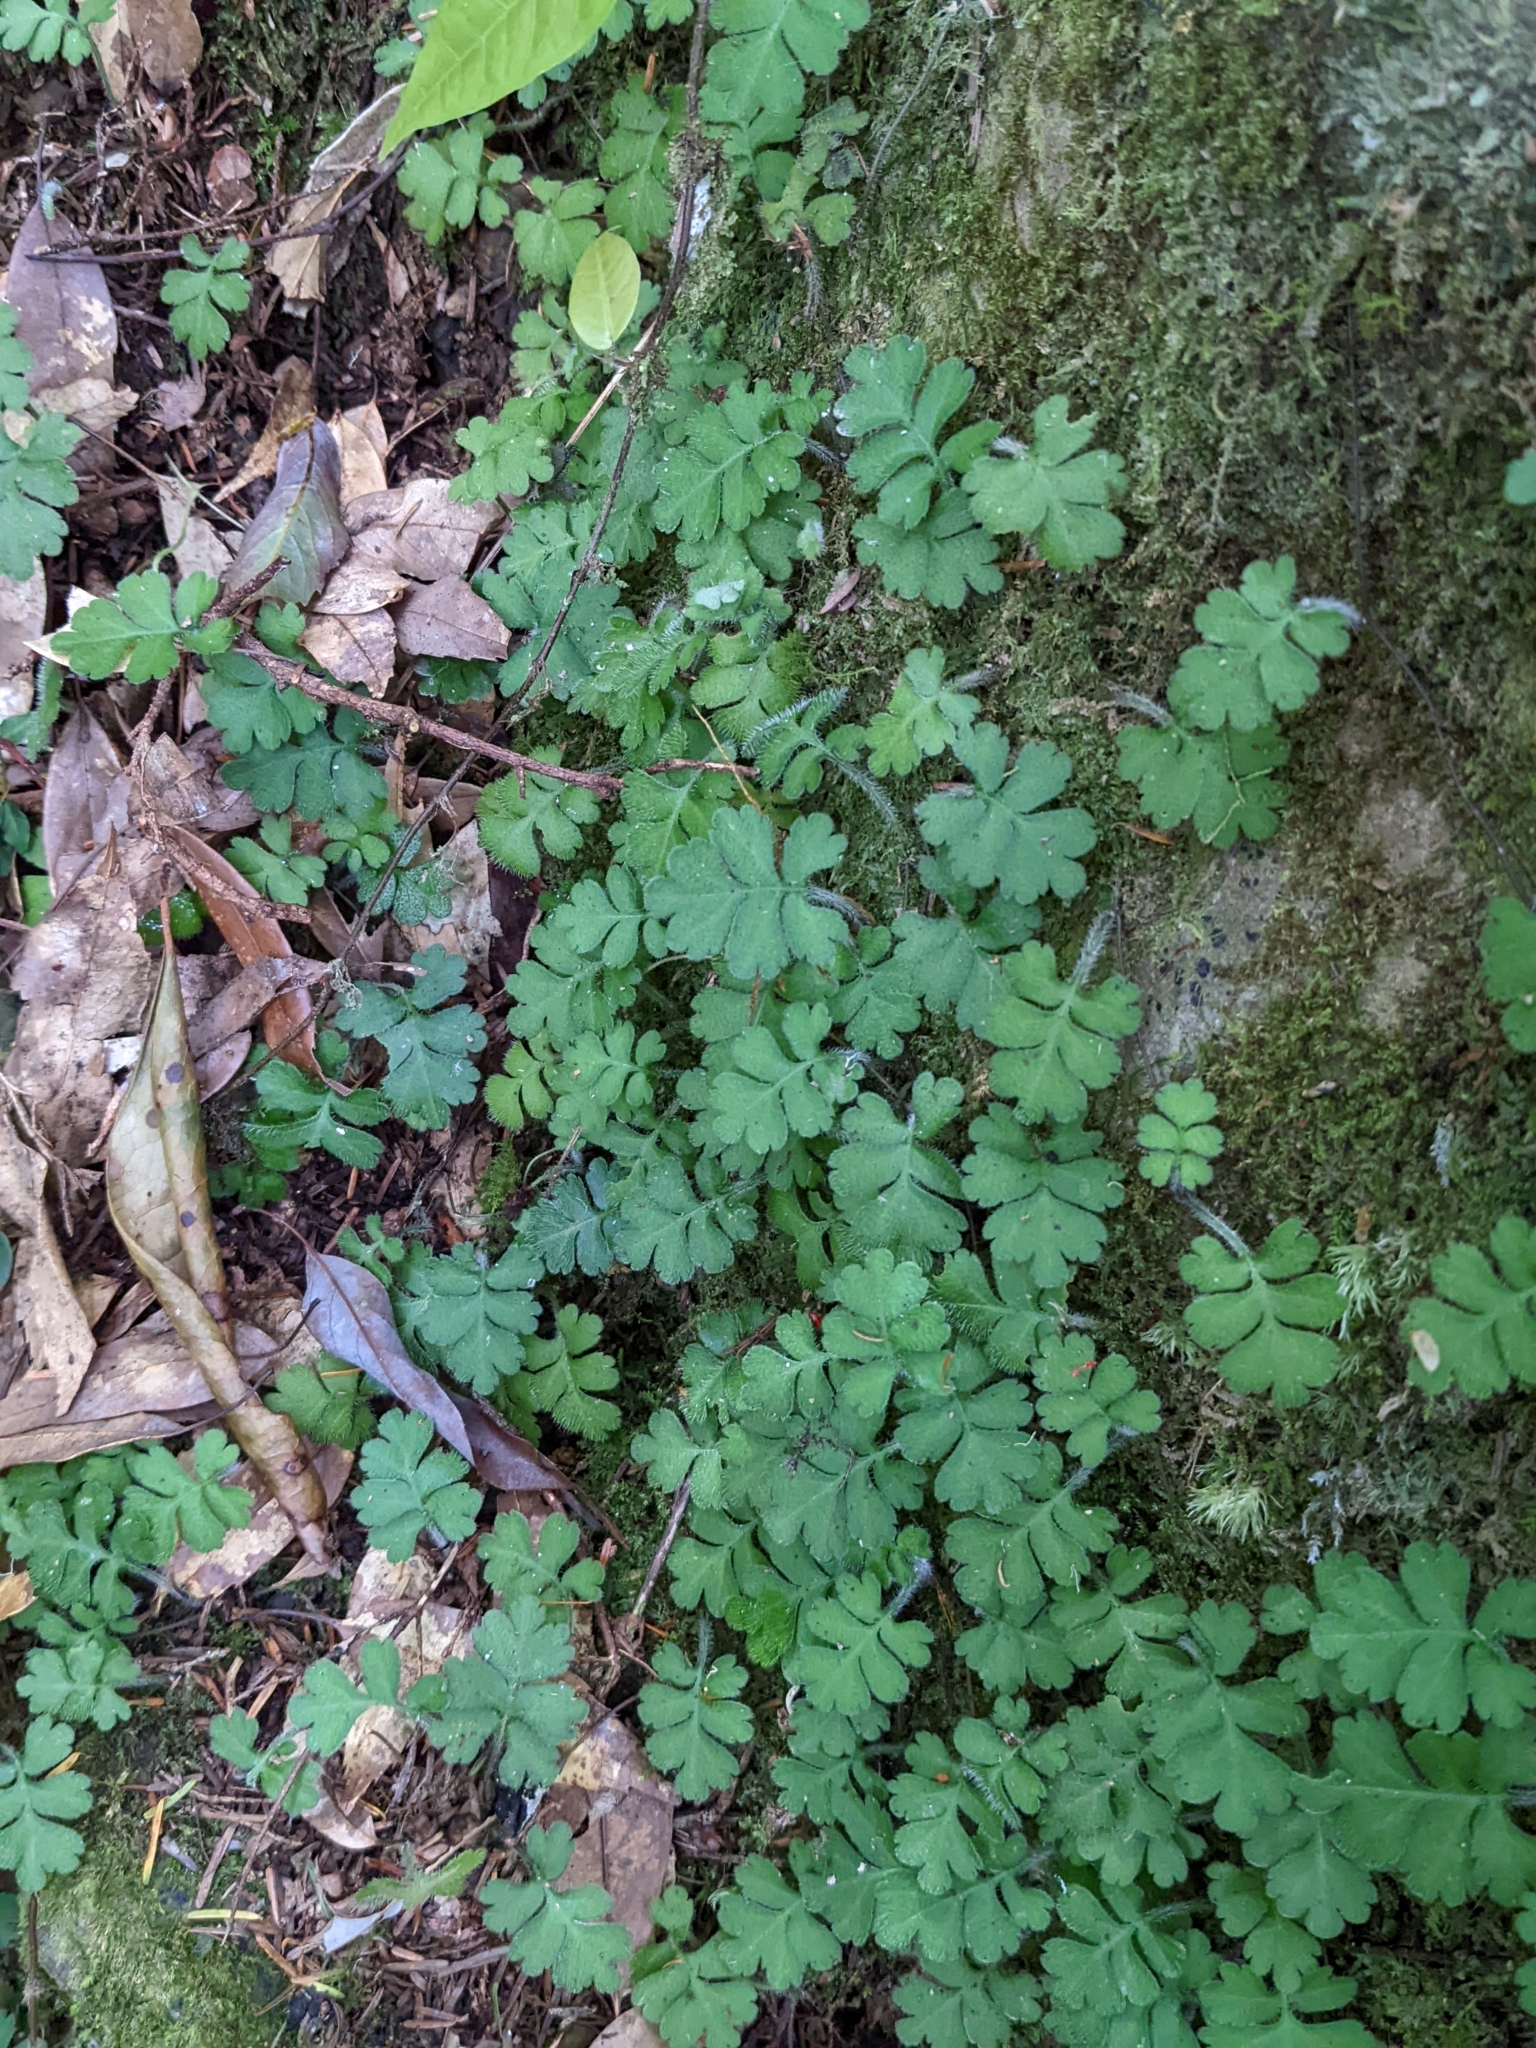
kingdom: Plantae
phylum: Tracheophyta
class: Magnoliopsida
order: Lamiales
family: Plantaginaceae
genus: Ellisiophyllum
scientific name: Ellisiophyllum pinnatum
